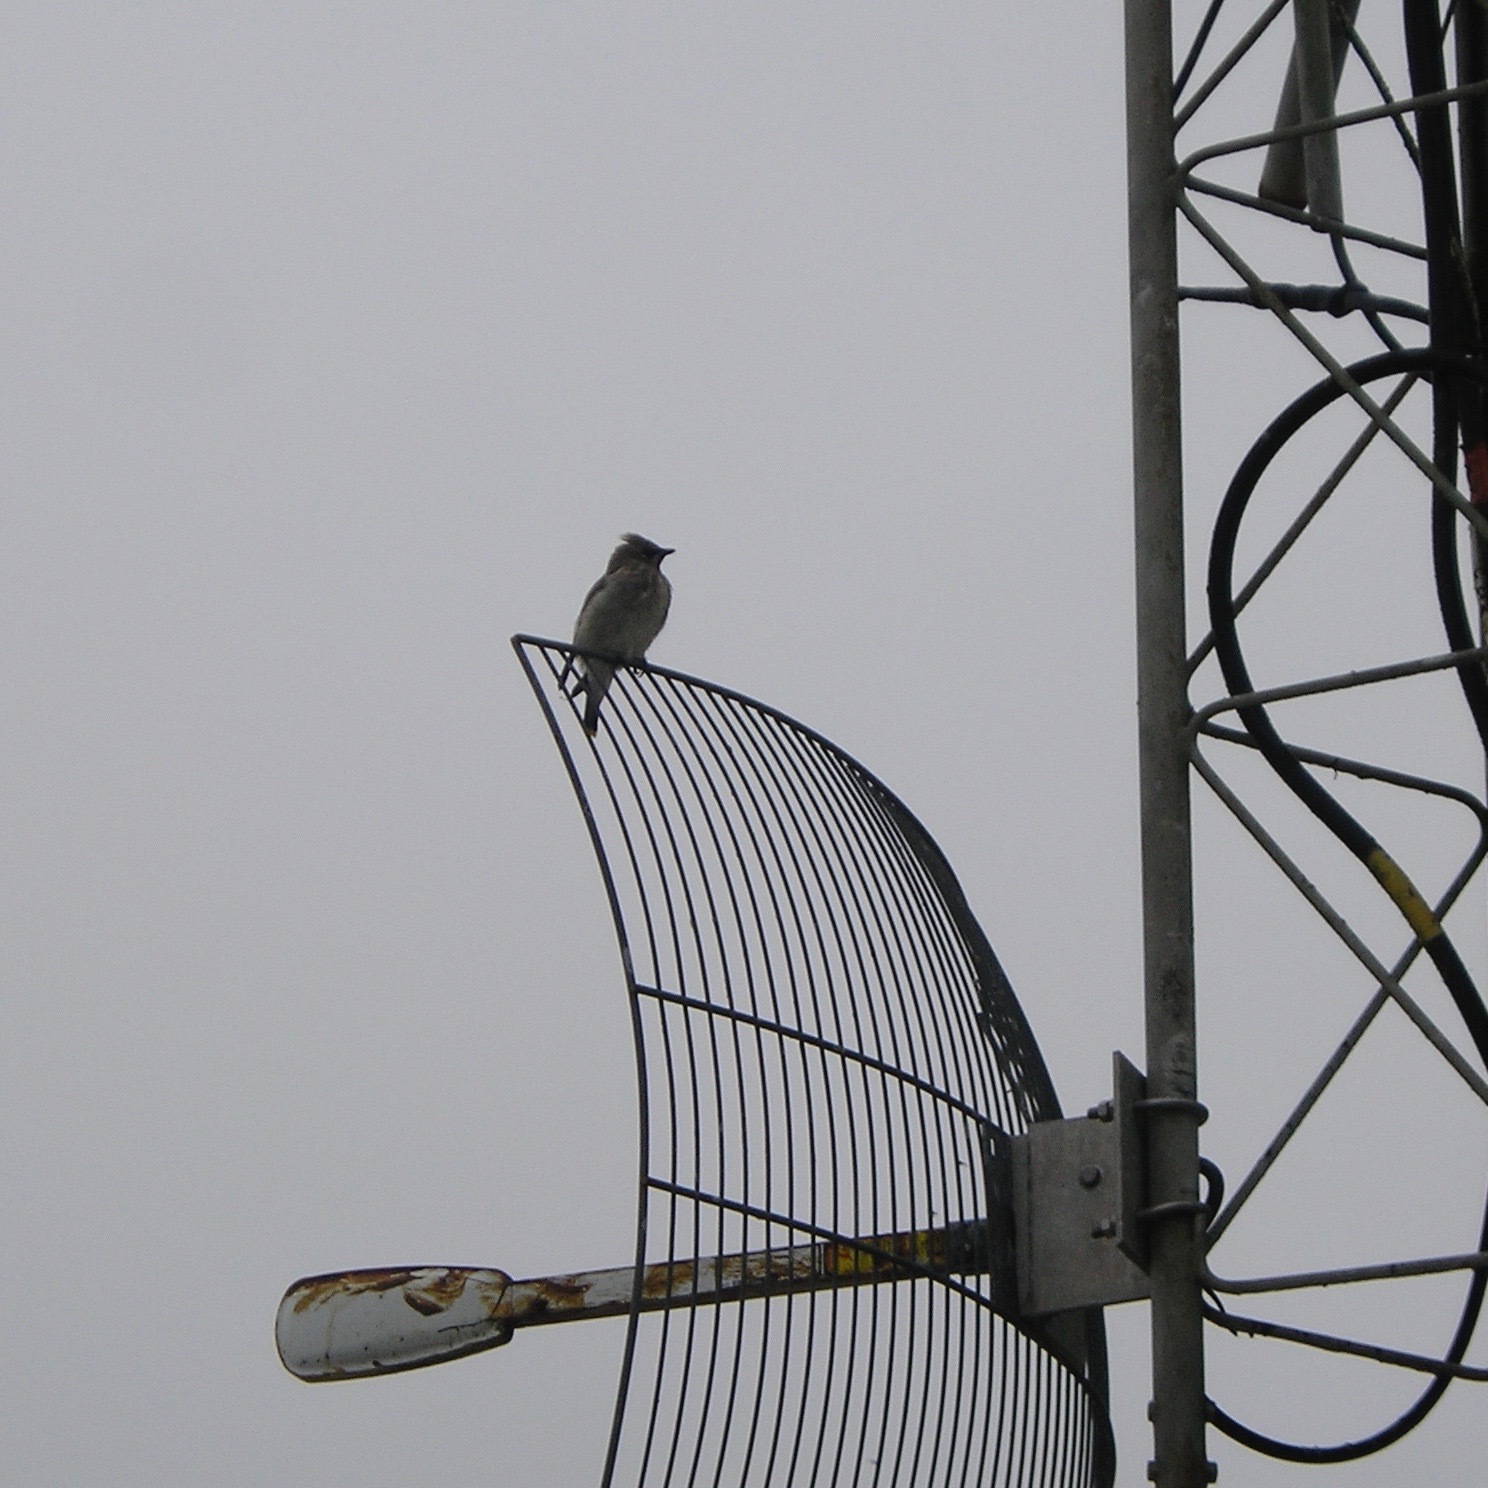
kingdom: Animalia
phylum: Chordata
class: Aves
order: Passeriformes
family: Bombycillidae
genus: Bombycilla
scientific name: Bombycilla cedrorum
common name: Cedar waxwing
